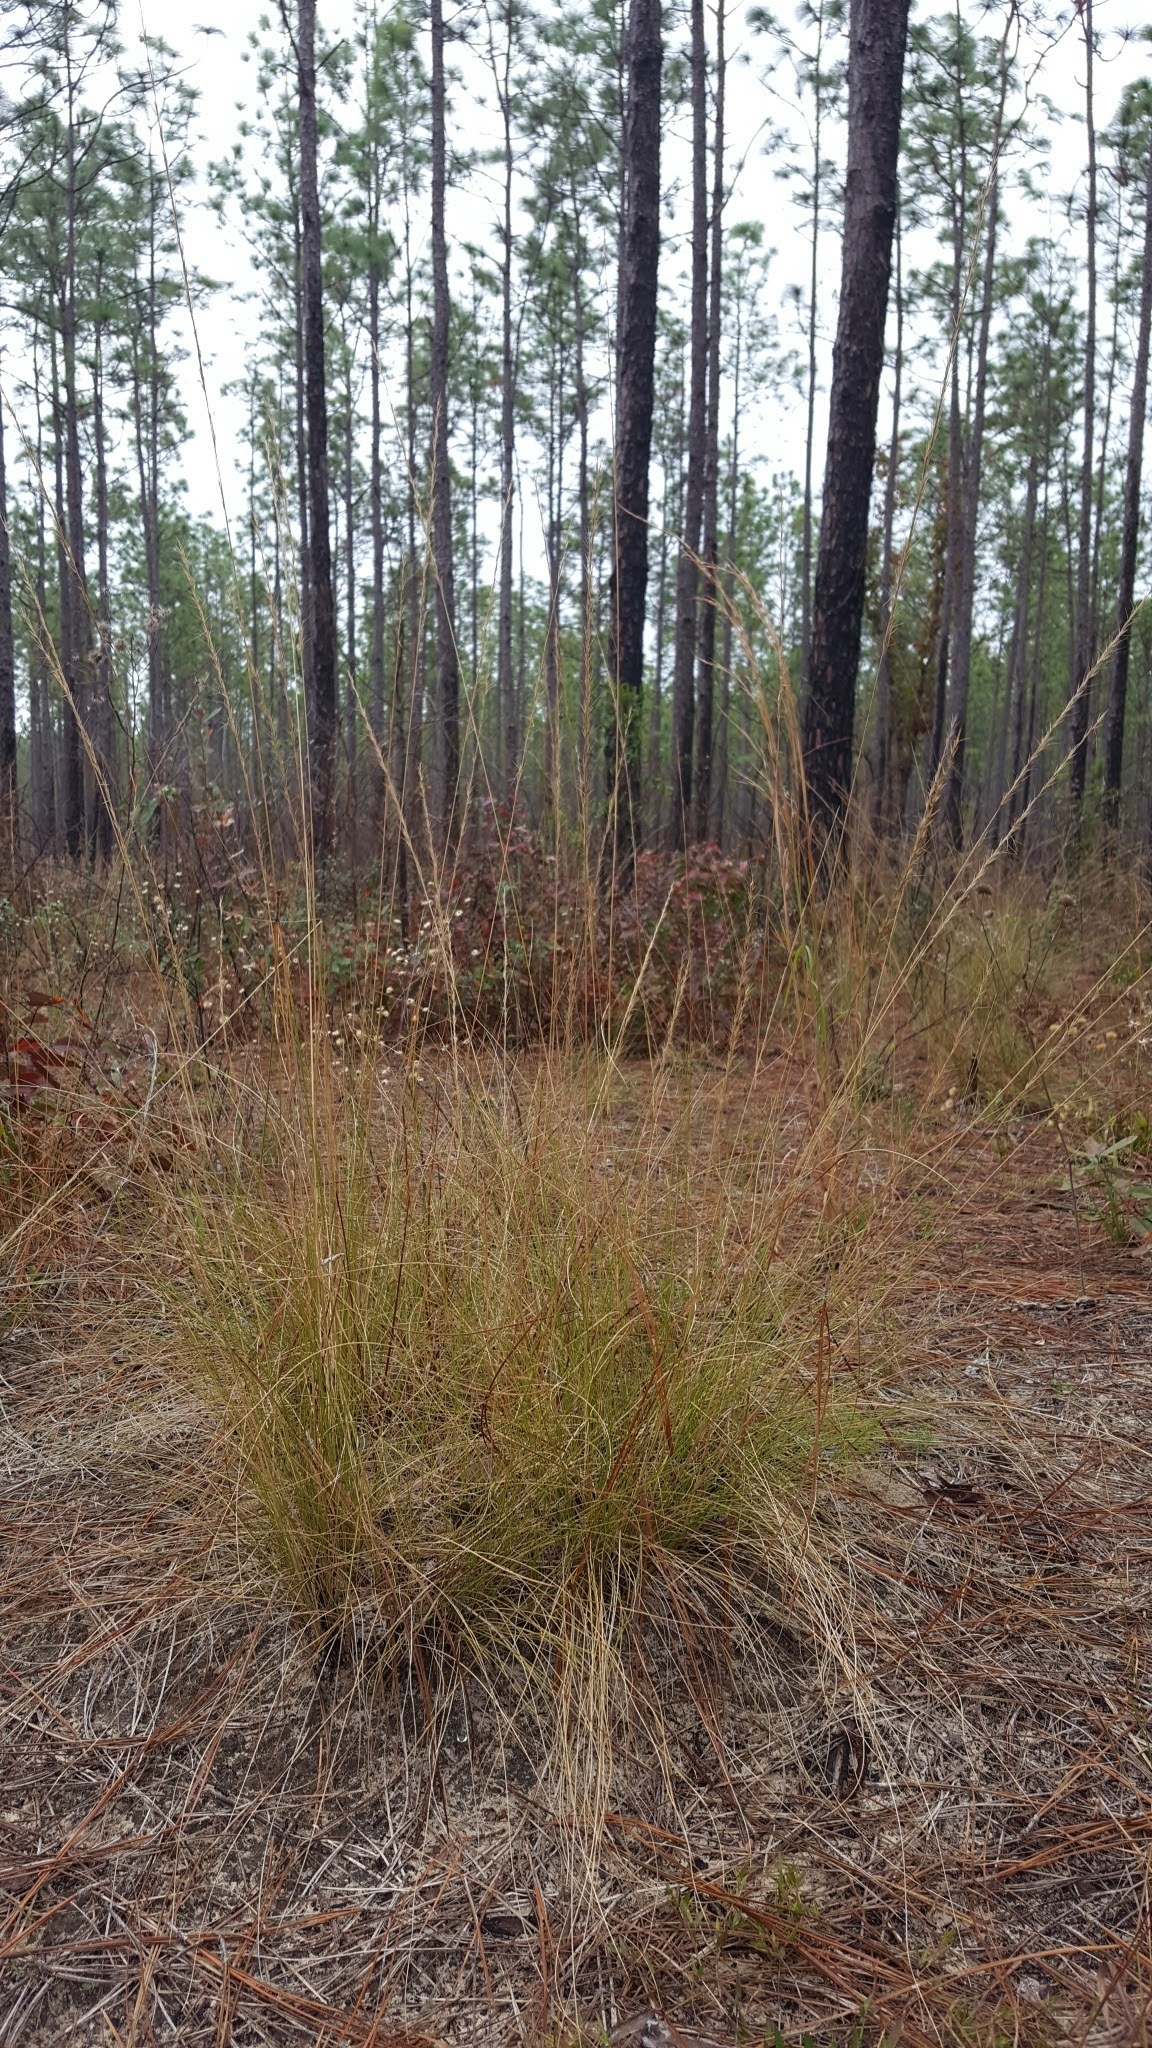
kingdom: Plantae
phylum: Tracheophyta
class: Liliopsida
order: Poales
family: Poaceae
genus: Aristida
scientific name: Aristida stricta
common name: Pineland three-awn
